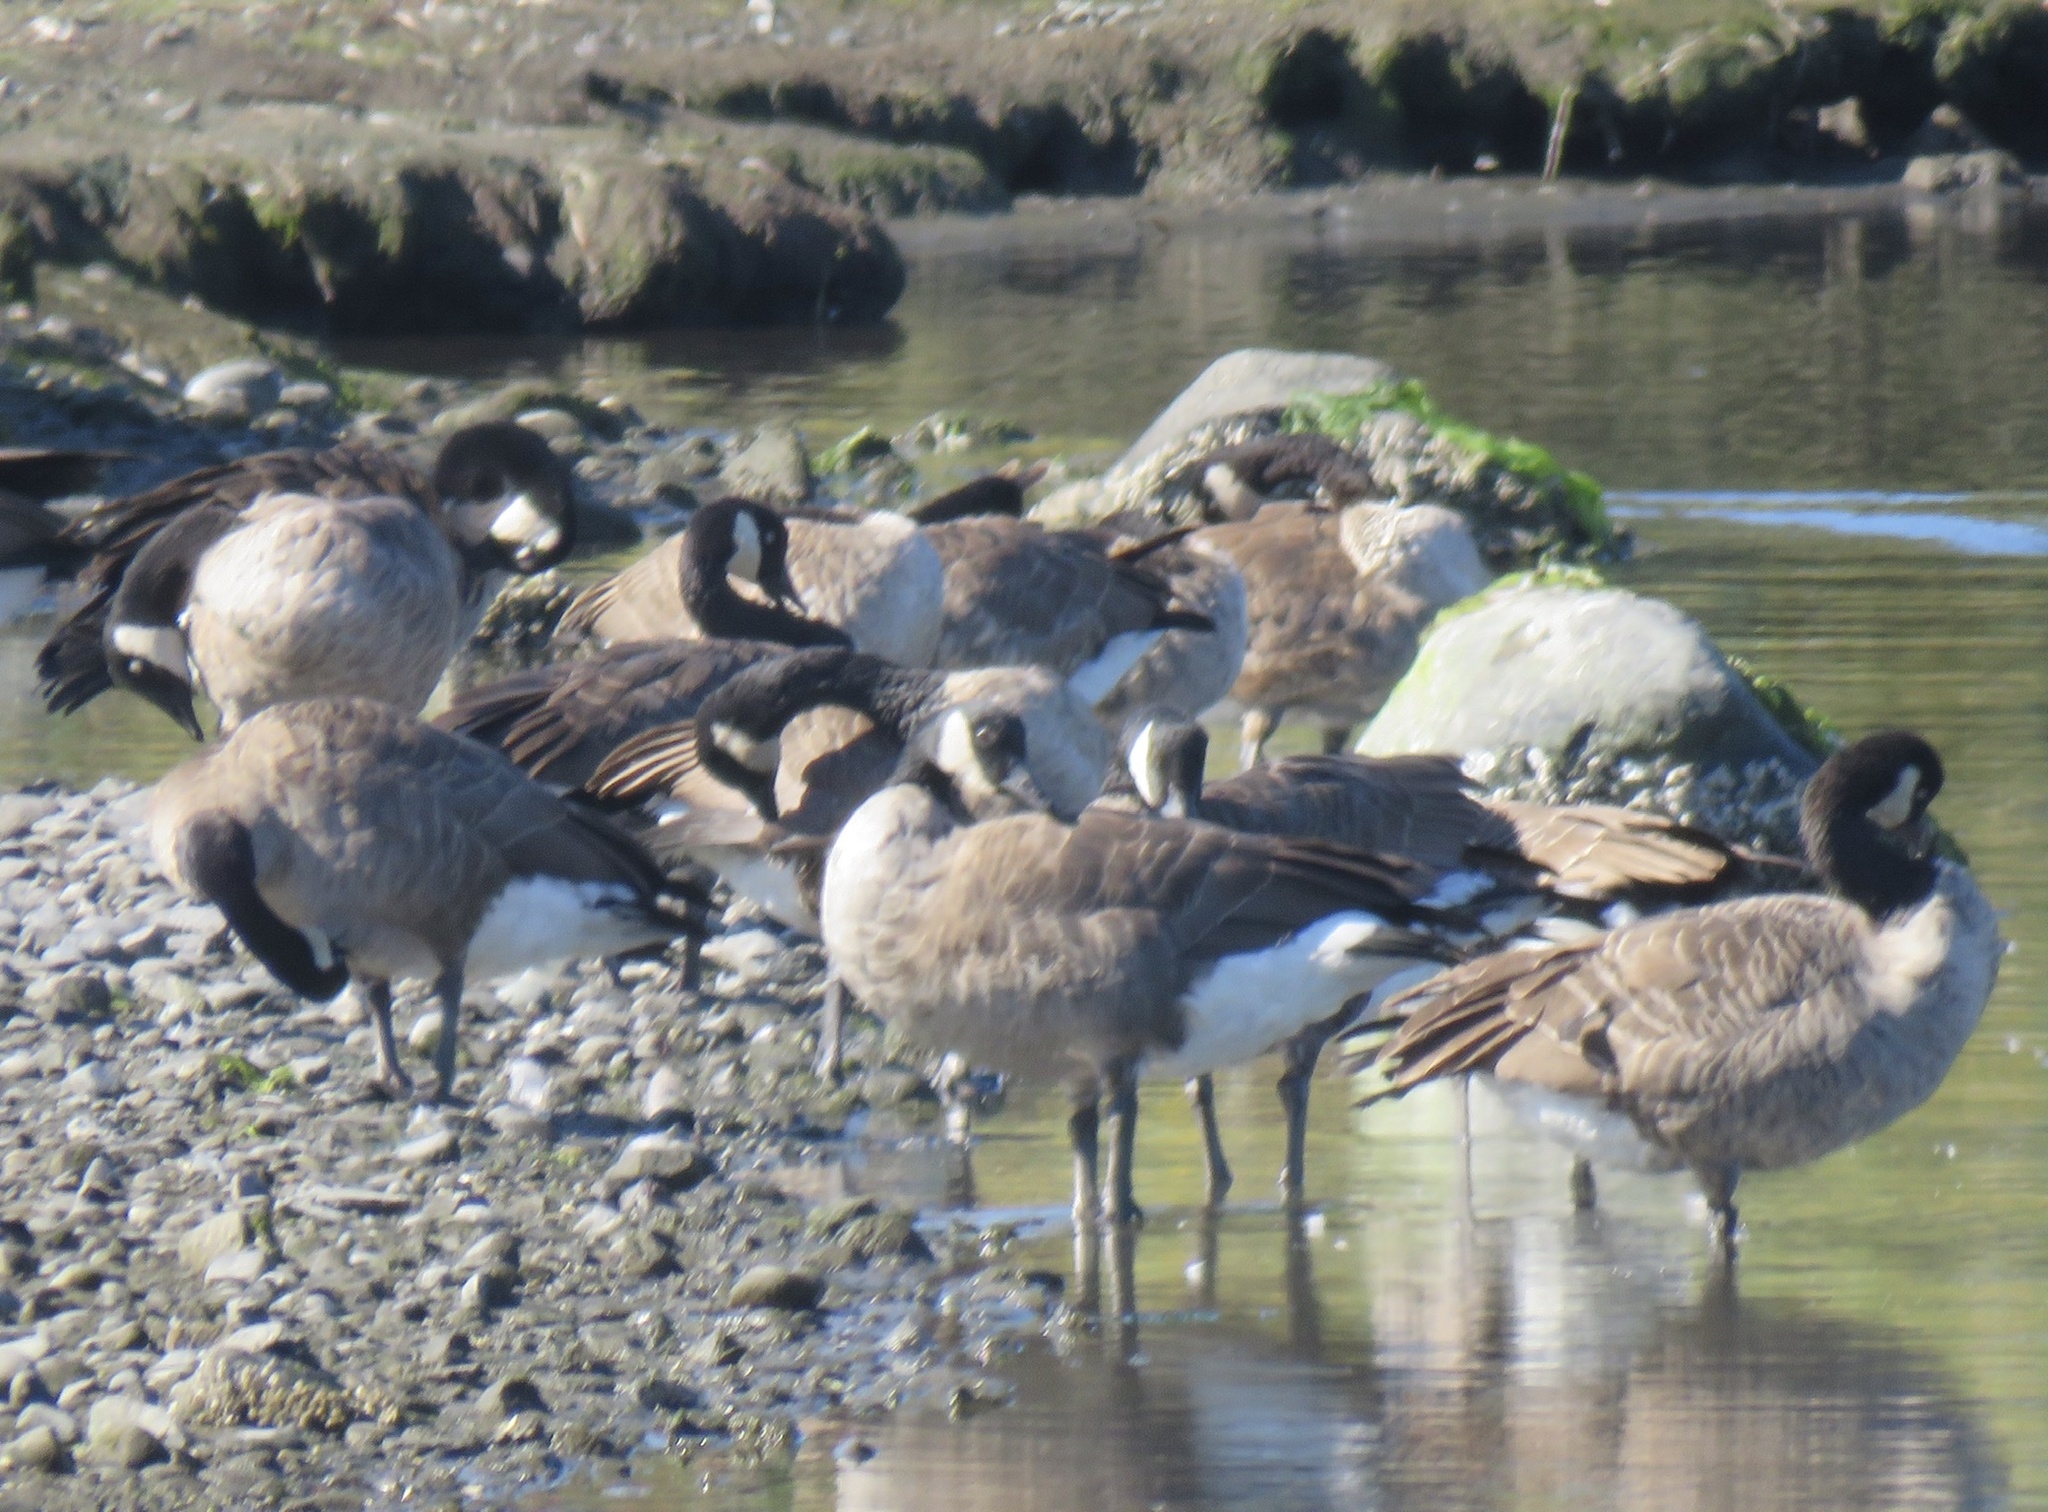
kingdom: Animalia
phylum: Chordata
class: Aves
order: Anseriformes
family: Anatidae
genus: Branta
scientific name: Branta canadensis
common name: Canada goose
